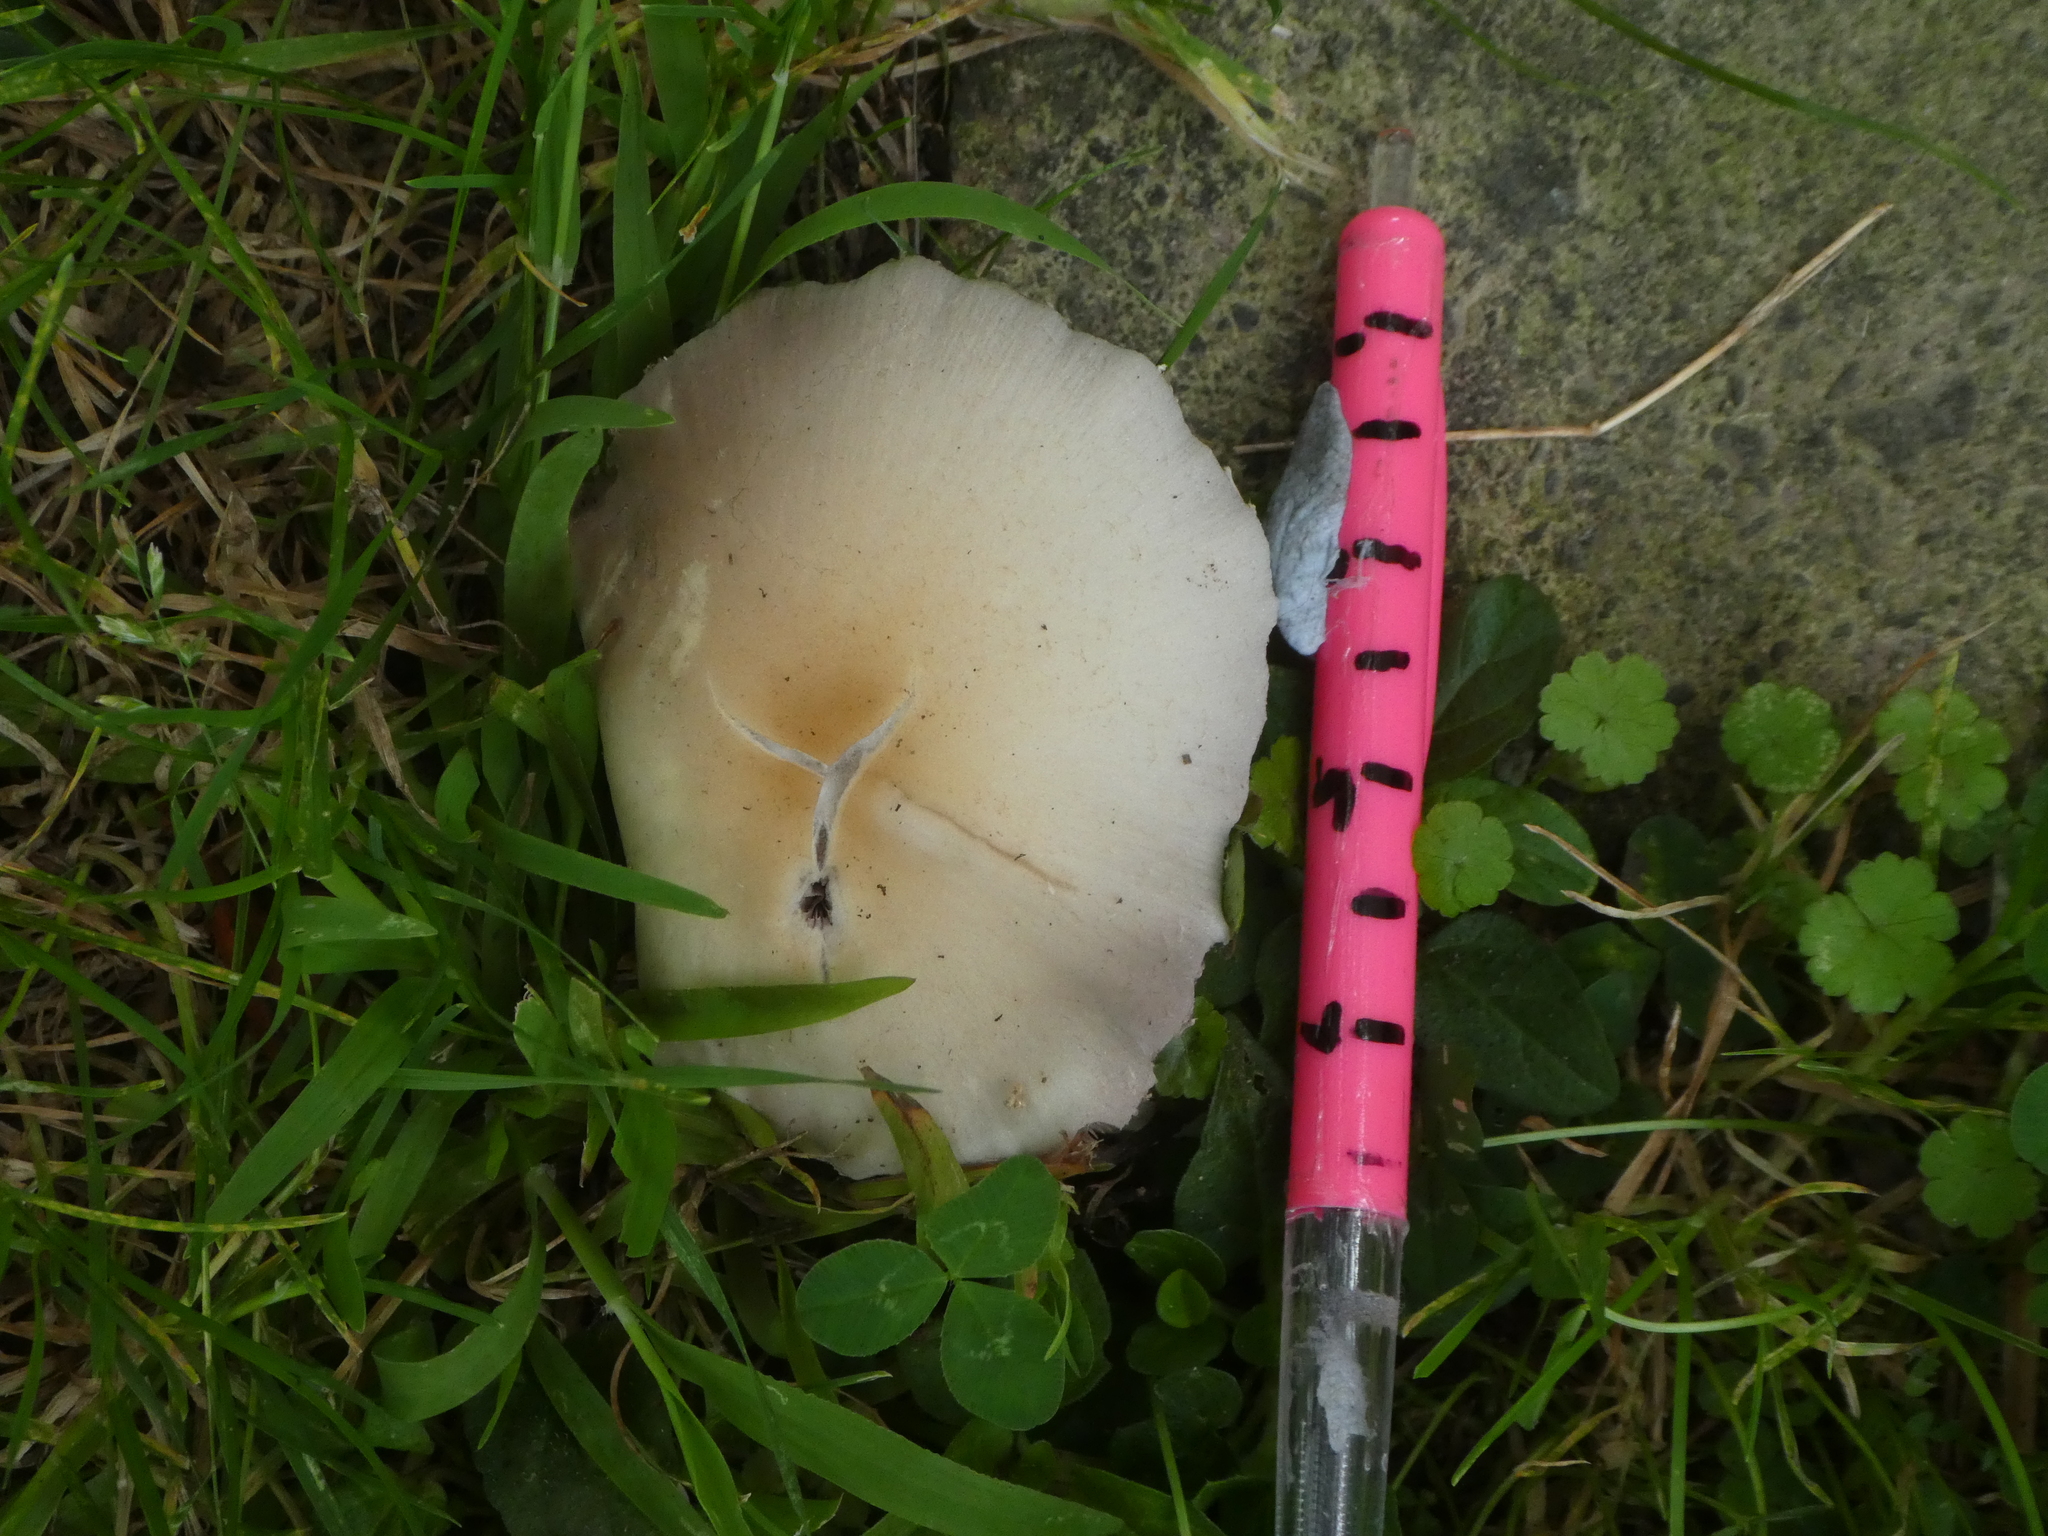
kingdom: Fungi
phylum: Basidiomycota
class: Agaricomycetes
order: Agaricales
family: Psathyrellaceae
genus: Candolleomyces
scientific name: Candolleomyces candolleanus
